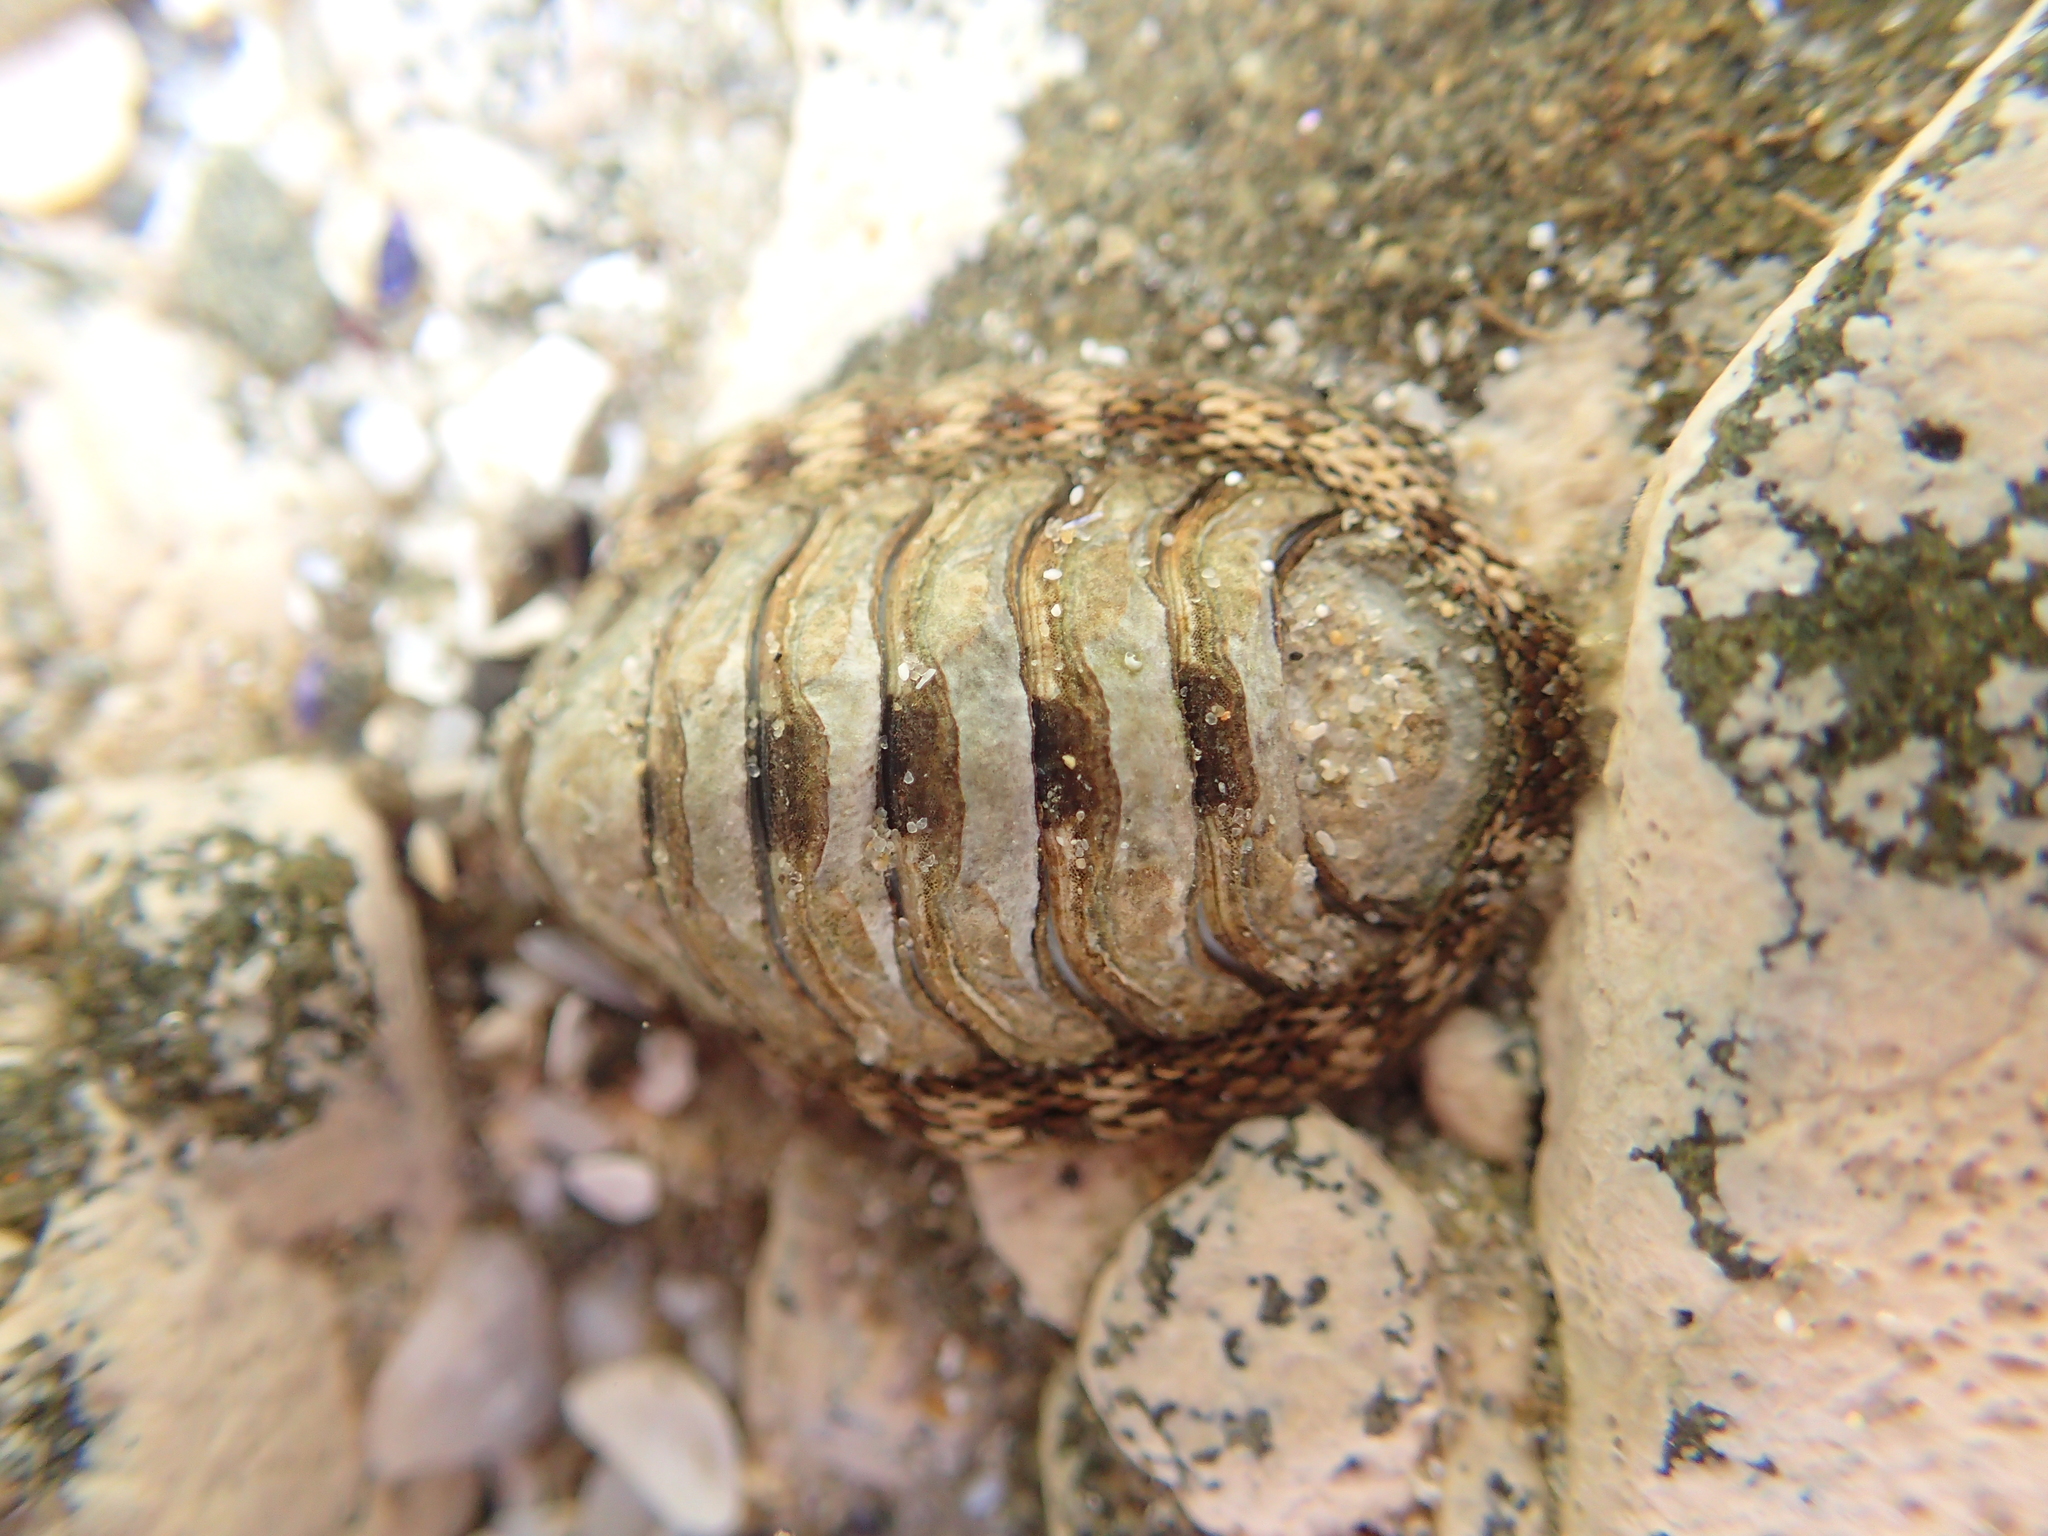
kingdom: Animalia
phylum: Mollusca
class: Polyplacophora
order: Chitonida
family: Chitonidae
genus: Sypharochiton
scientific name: Sypharochiton pelliserpentis
